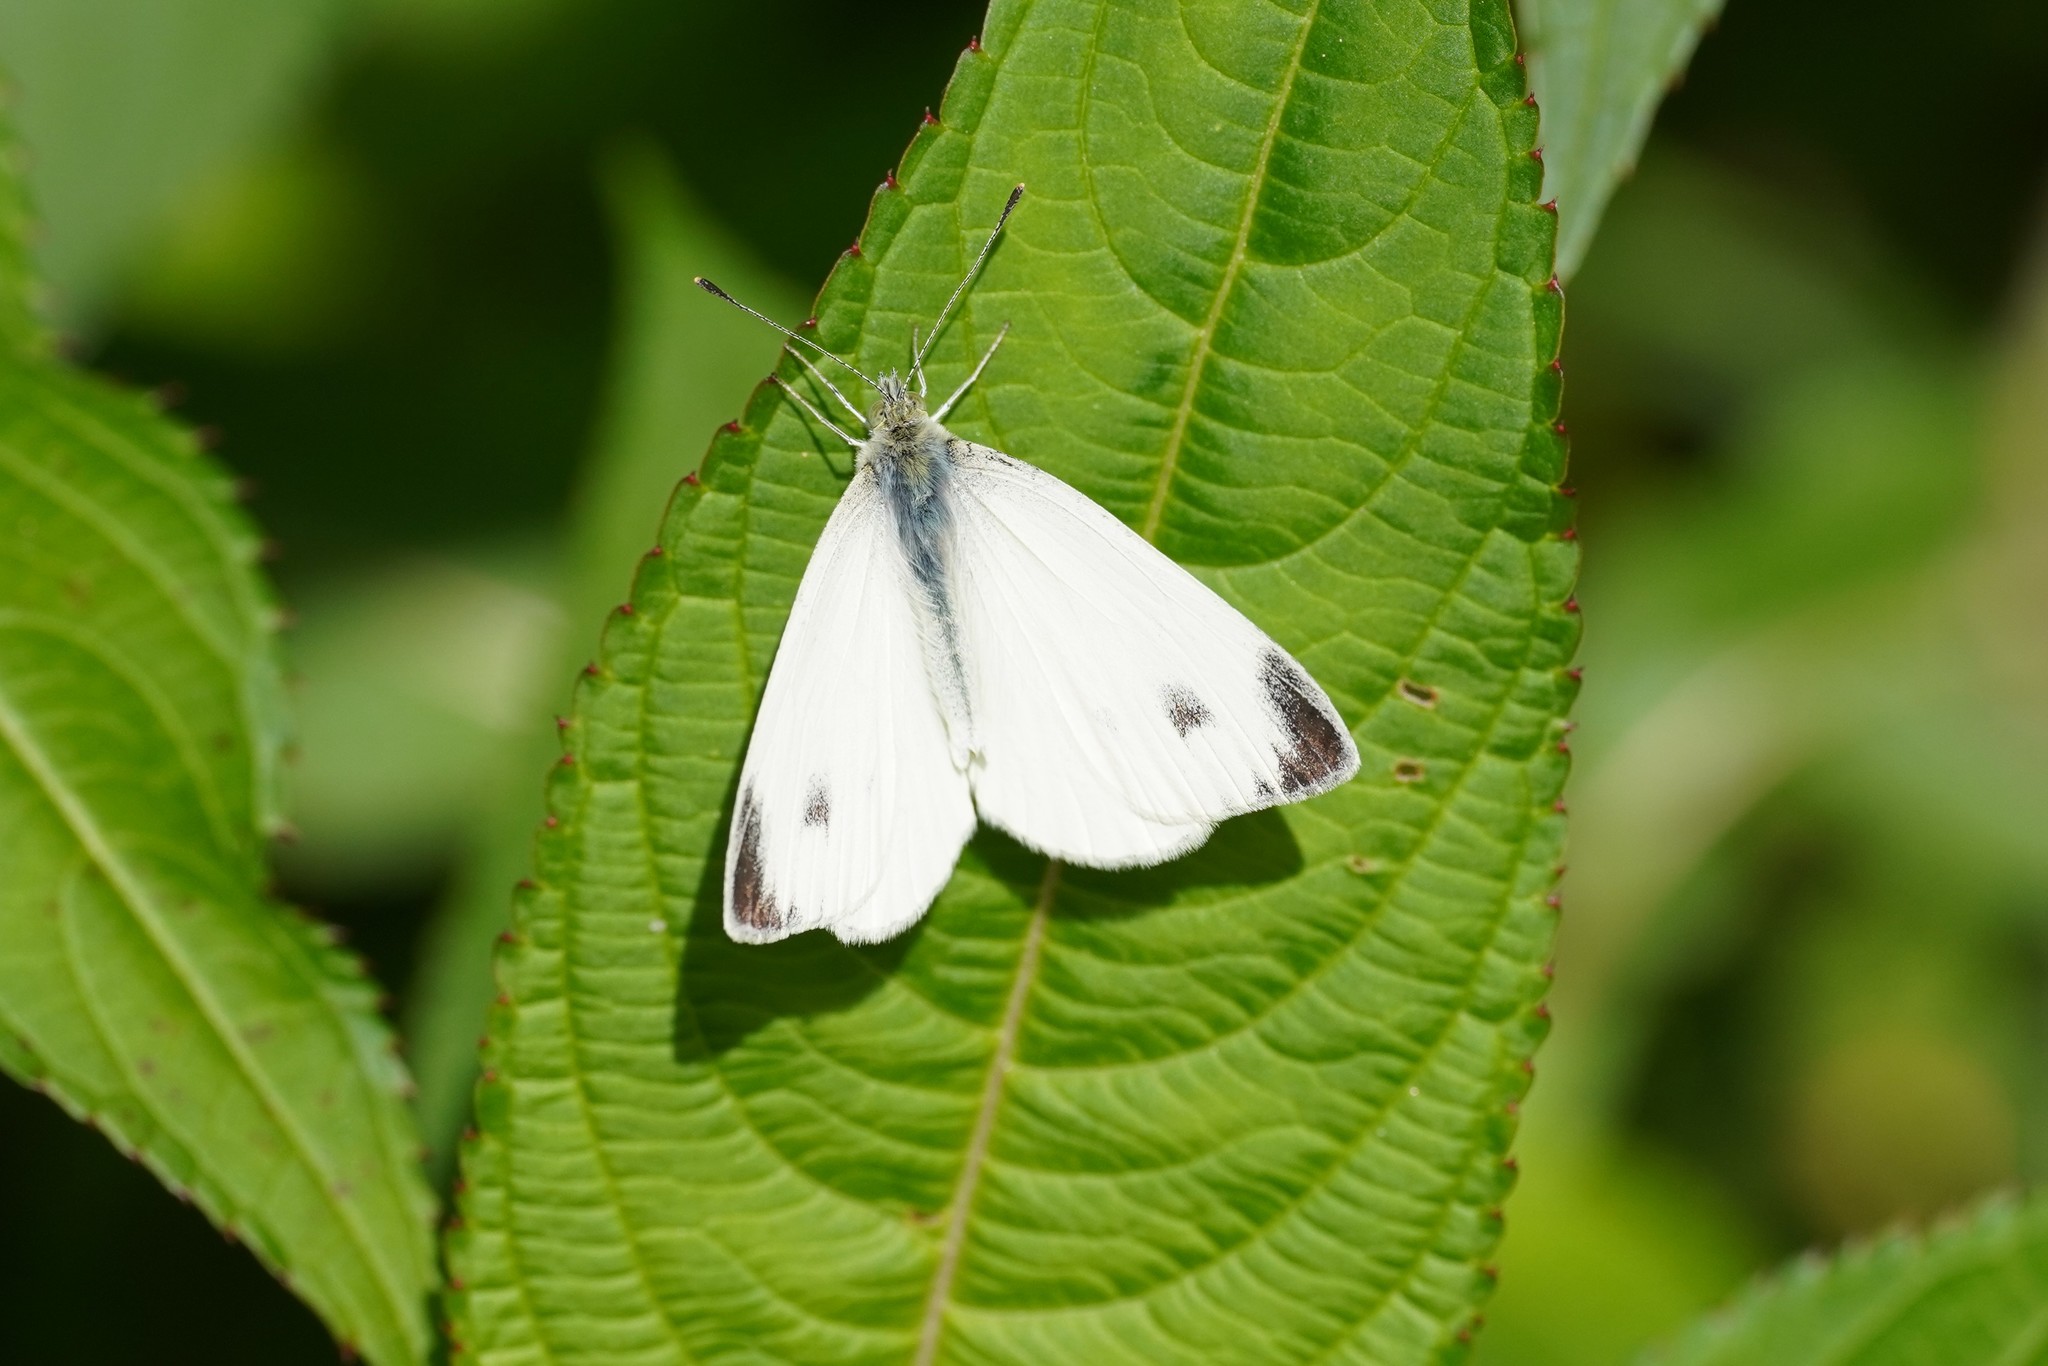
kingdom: Animalia
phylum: Arthropoda
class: Insecta
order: Lepidoptera
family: Pieridae
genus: Pieris
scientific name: Pieris mannii
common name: Southern small white
